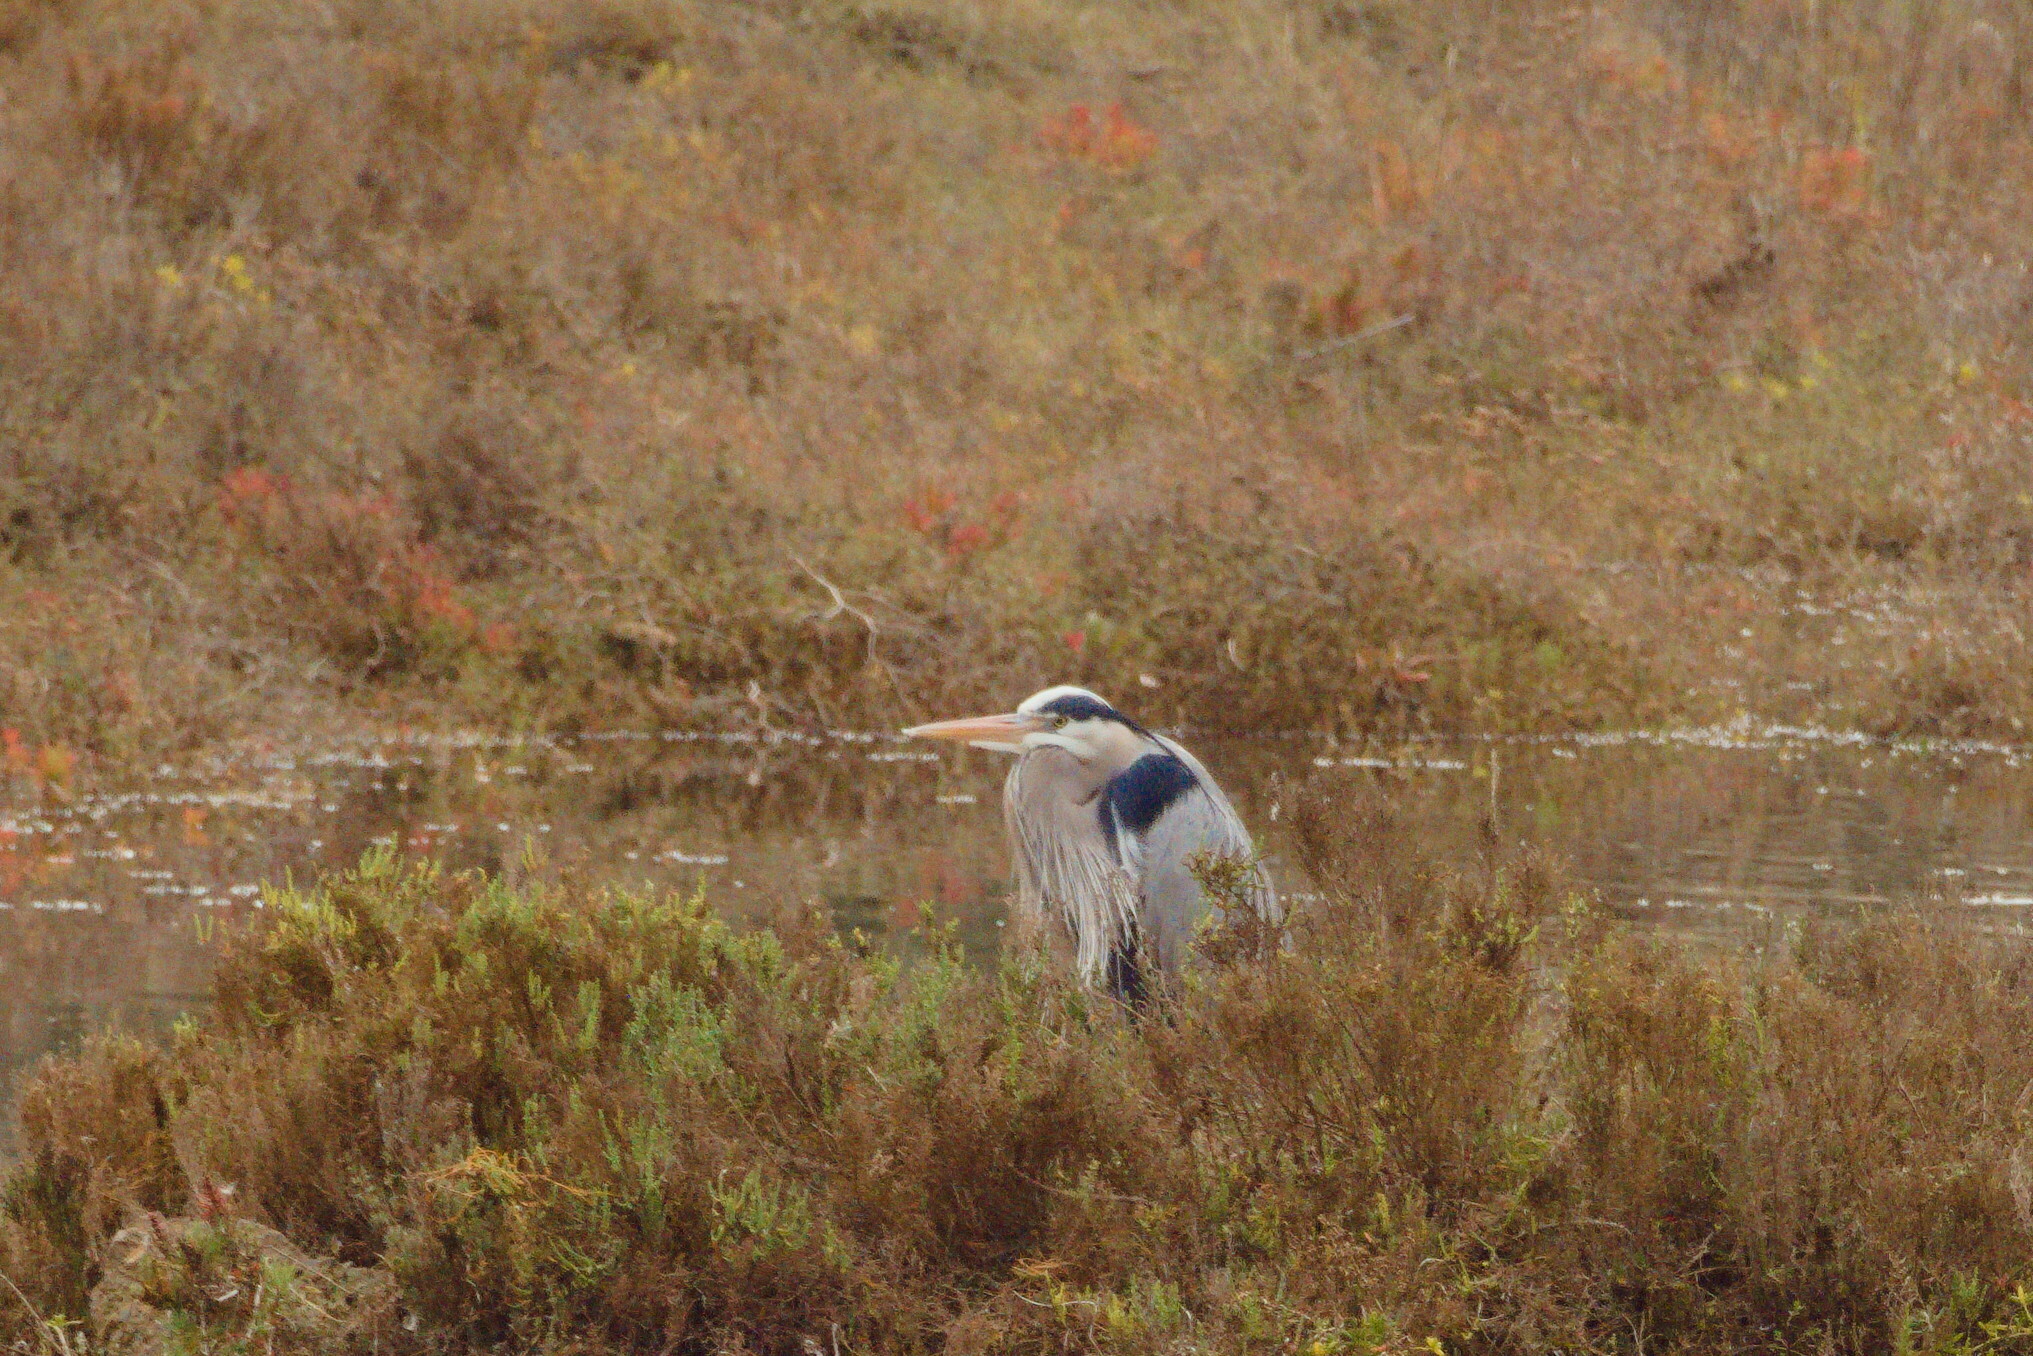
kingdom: Animalia
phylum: Chordata
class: Aves
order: Pelecaniformes
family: Ardeidae
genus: Ardea
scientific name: Ardea herodias
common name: Great blue heron
